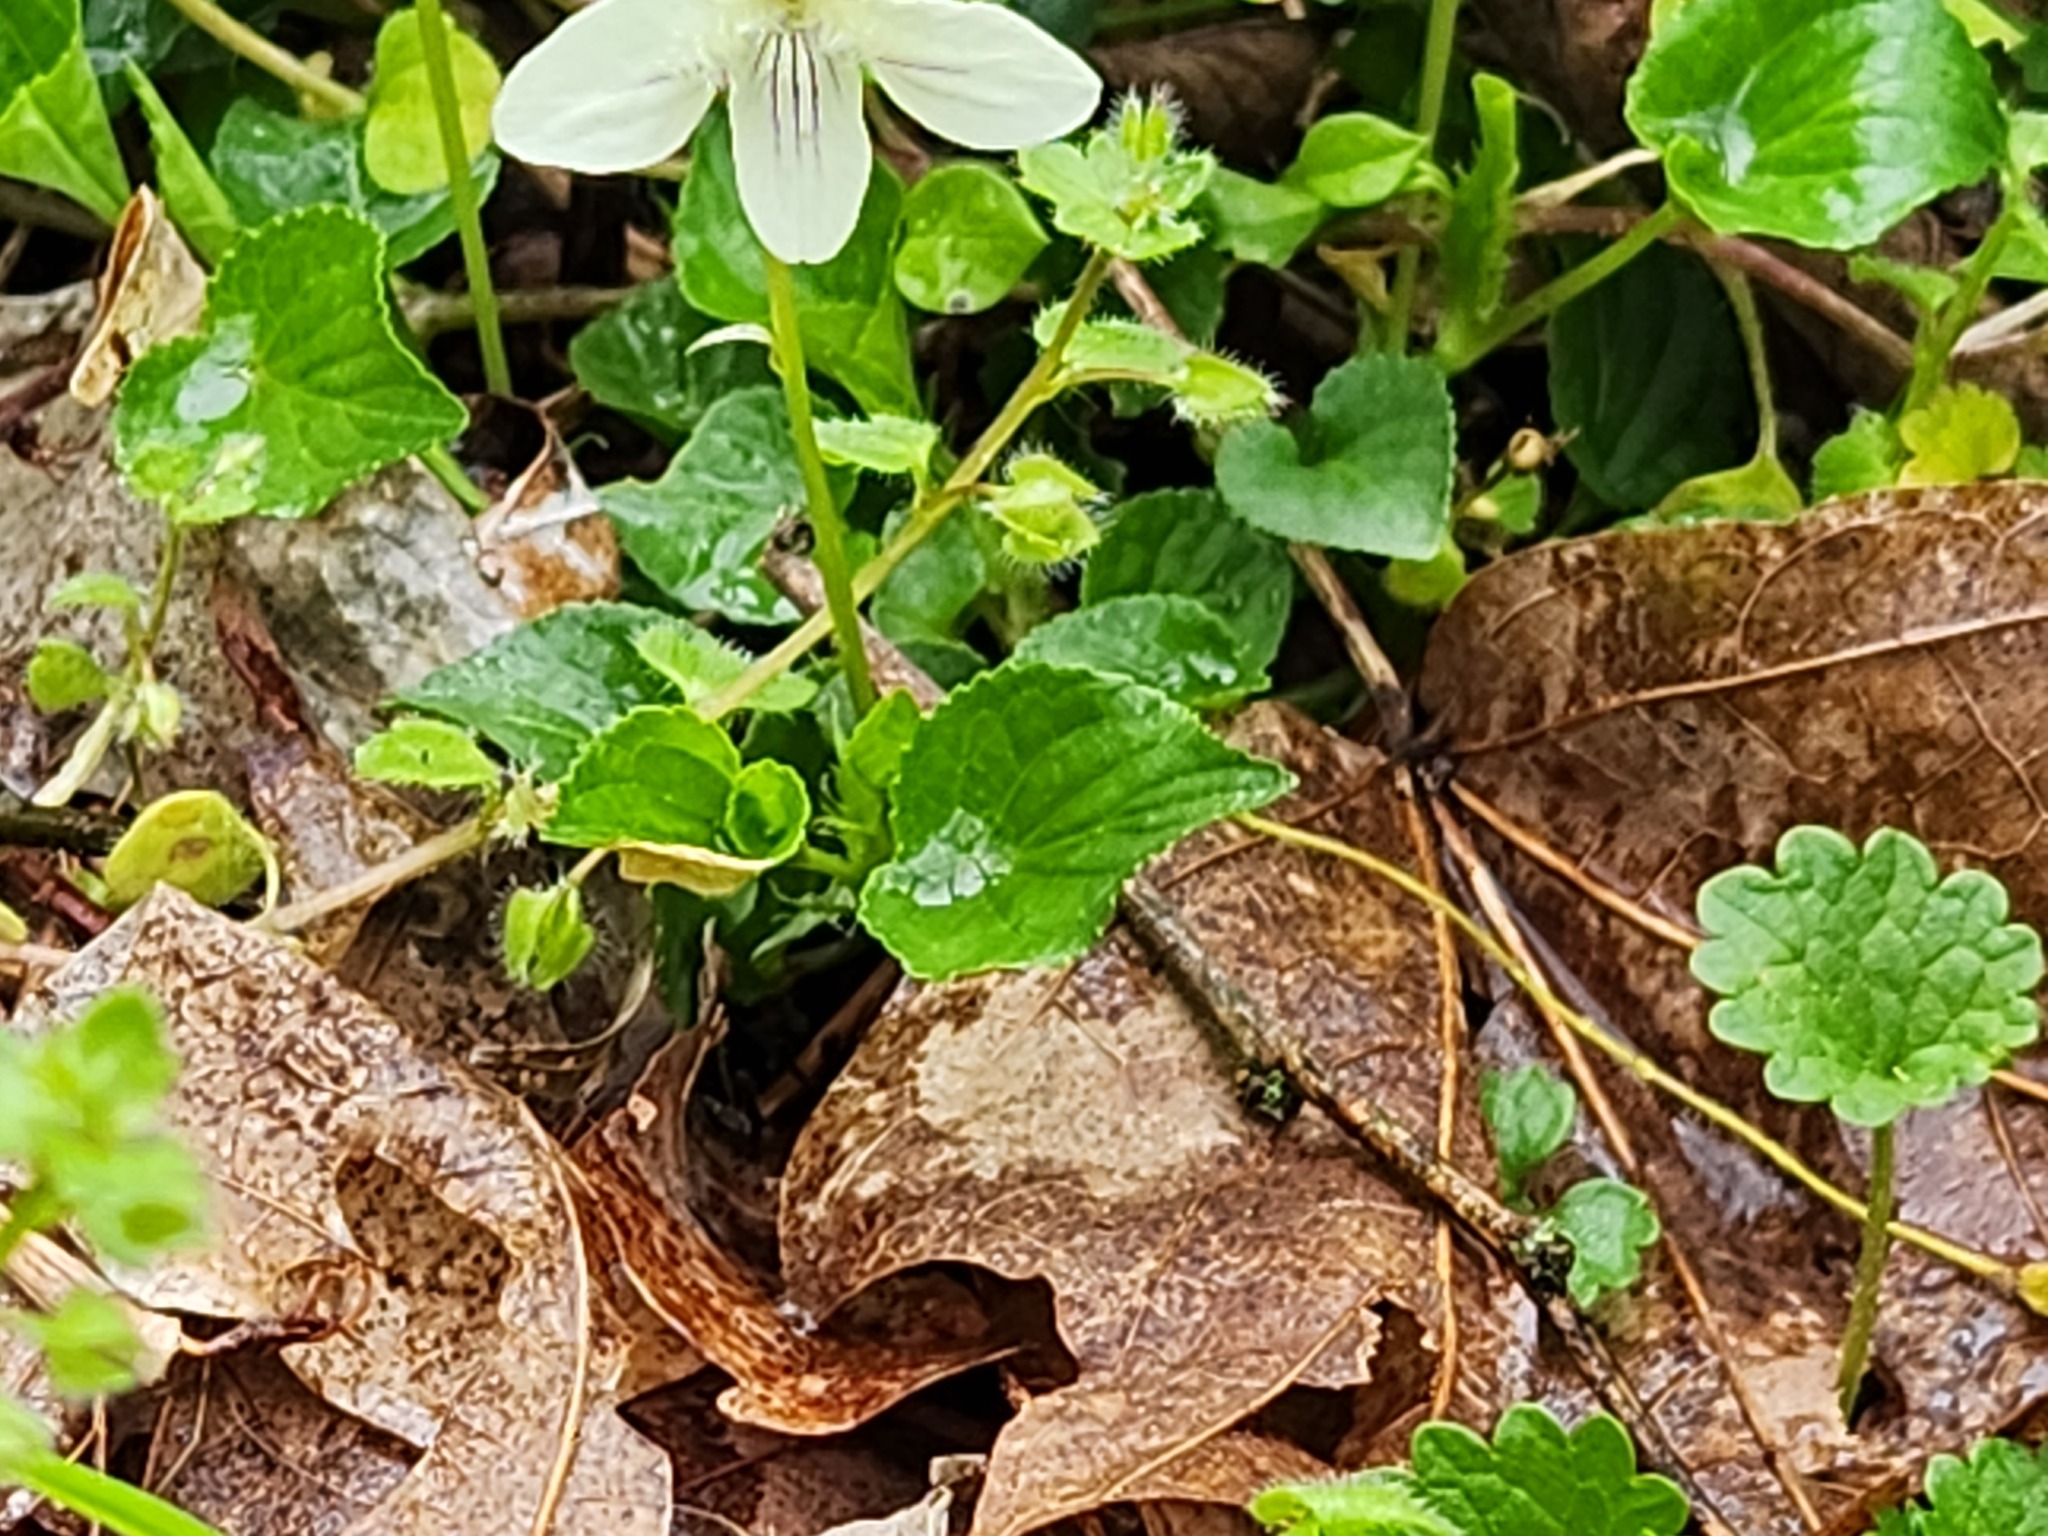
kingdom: Plantae
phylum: Tracheophyta
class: Magnoliopsida
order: Malpighiales
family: Violaceae
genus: Viola
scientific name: Viola striata
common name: Cream violet
